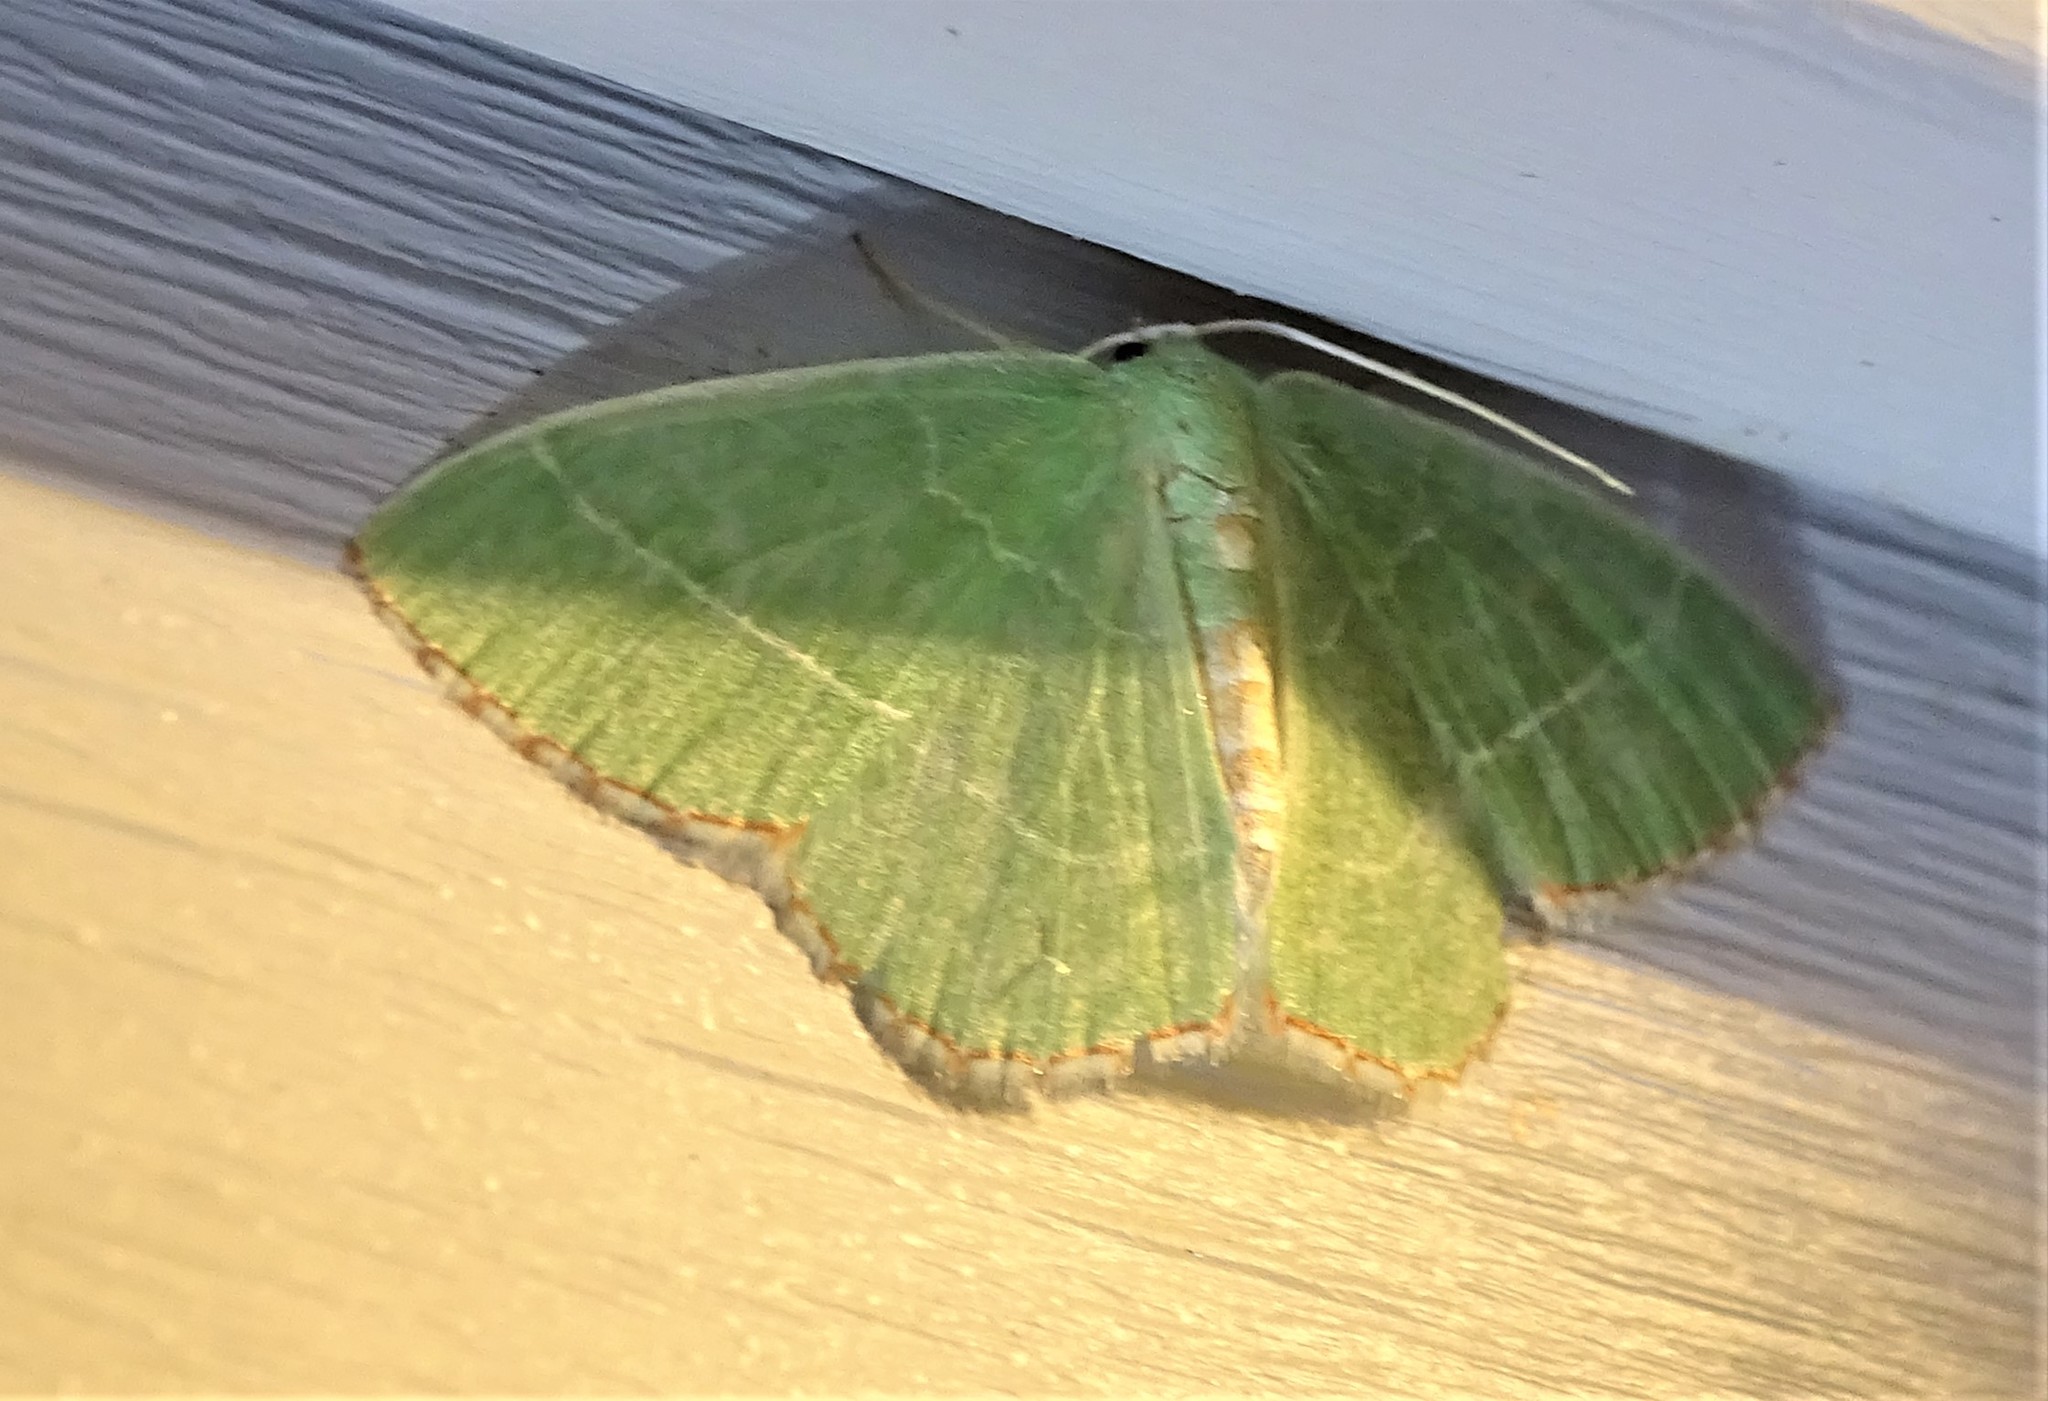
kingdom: Animalia
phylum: Arthropoda
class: Insecta
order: Lepidoptera
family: Geometridae
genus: Nemoria
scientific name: Nemoria bistriaria
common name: Red-fringed emerald
